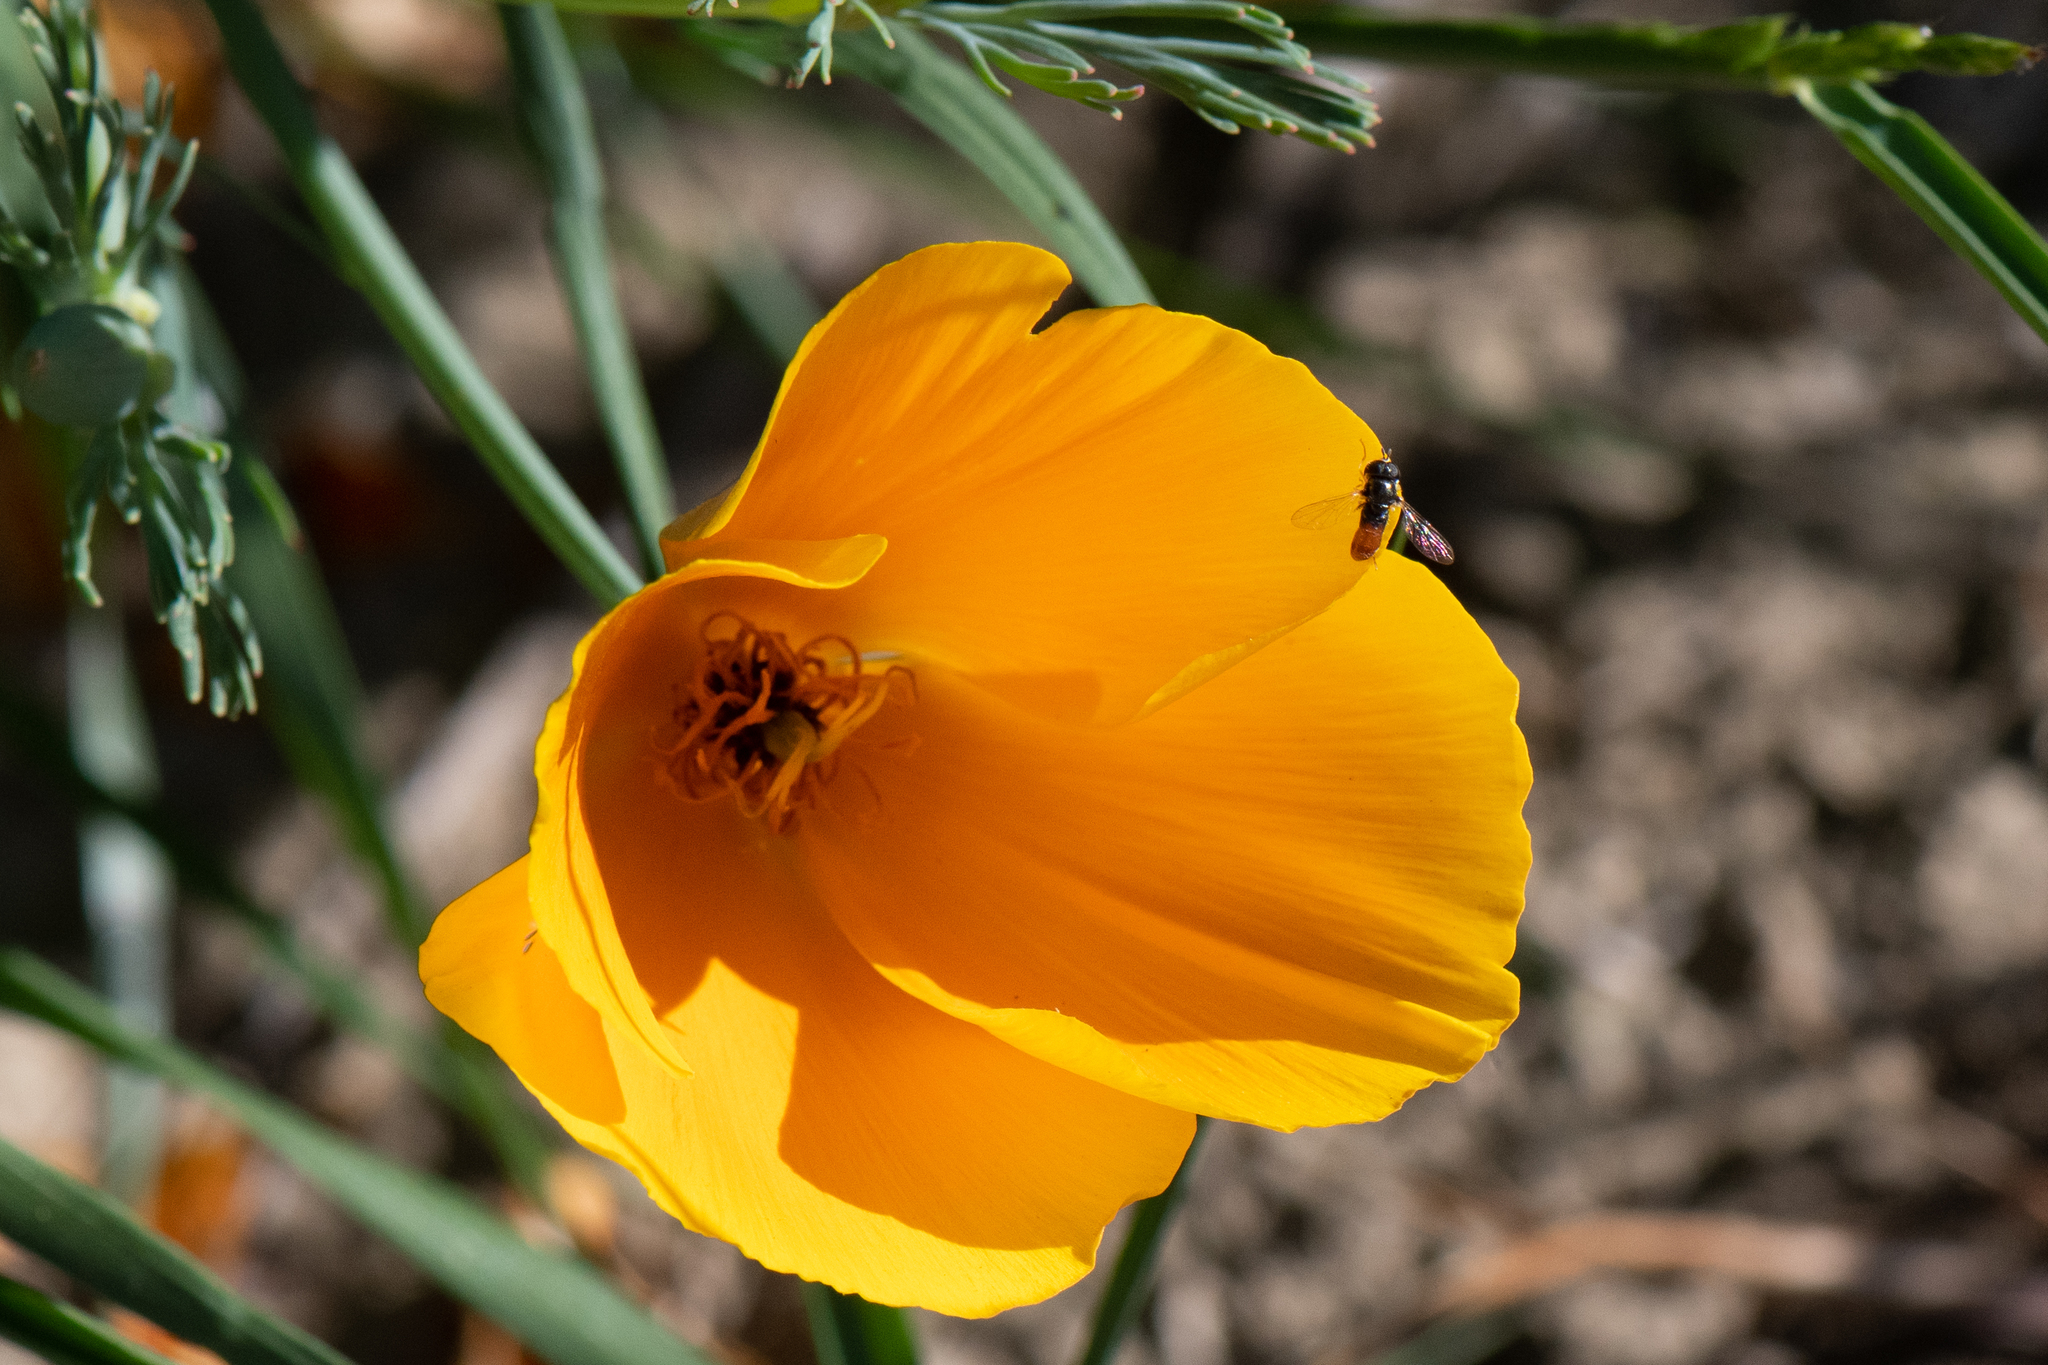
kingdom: Plantae
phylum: Tracheophyta
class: Magnoliopsida
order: Ranunculales
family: Papaveraceae
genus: Eschscholzia
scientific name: Eschscholzia californica
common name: California poppy
